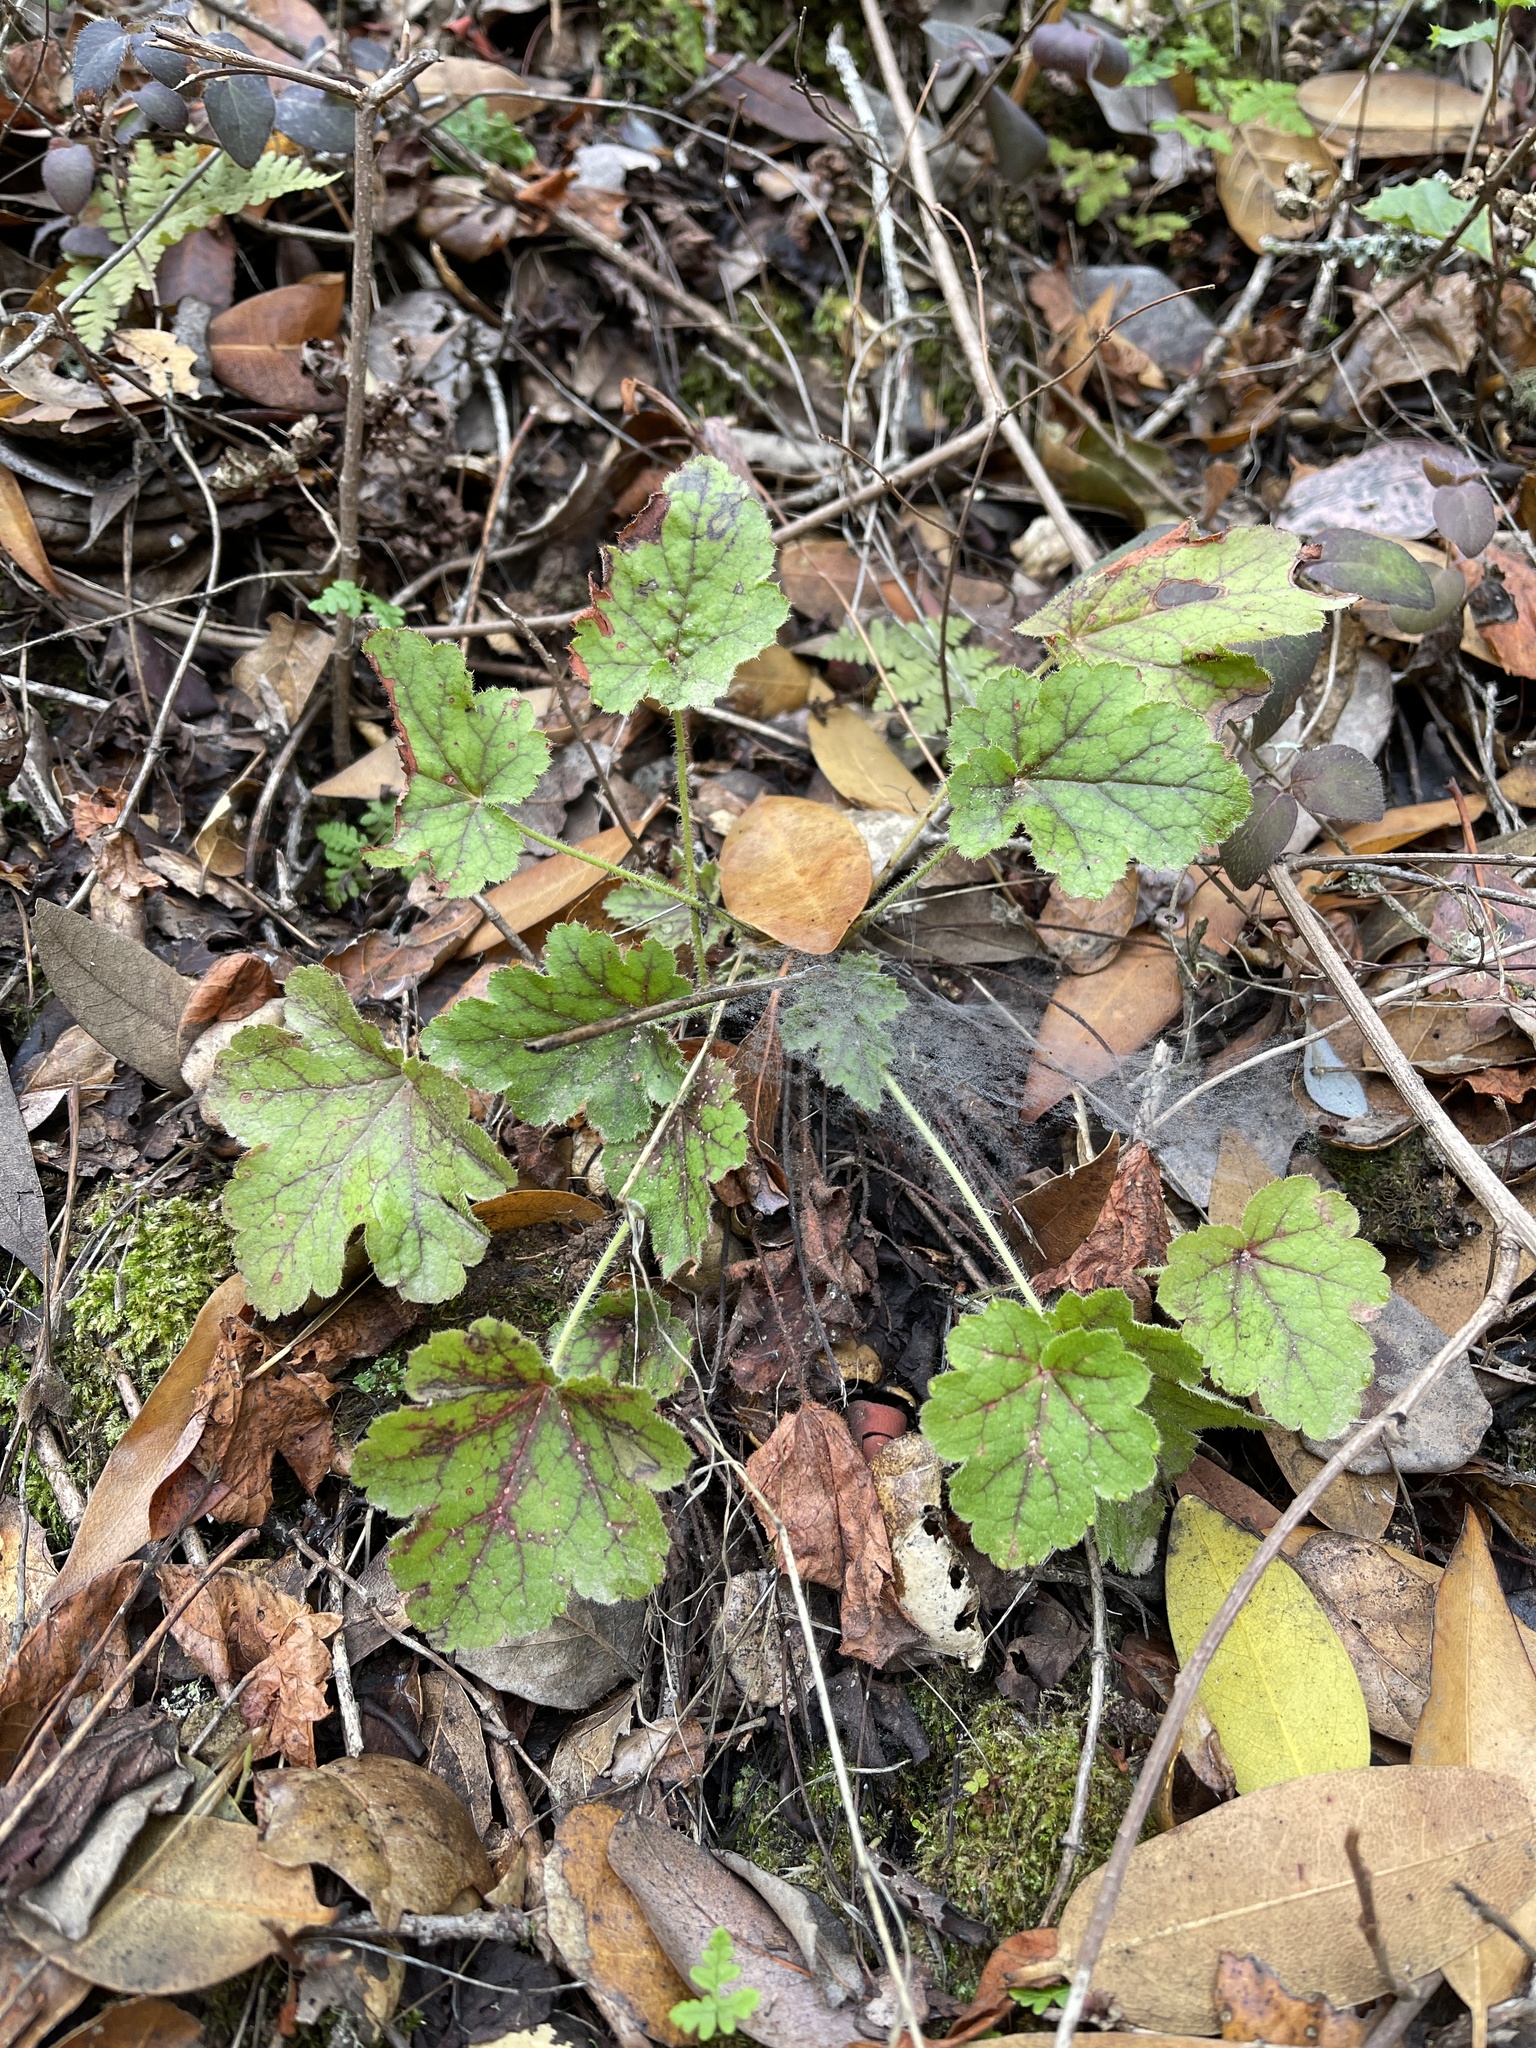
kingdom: Plantae
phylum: Tracheophyta
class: Magnoliopsida
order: Saxifragales
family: Saxifragaceae
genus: Heuchera
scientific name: Heuchera micrantha
